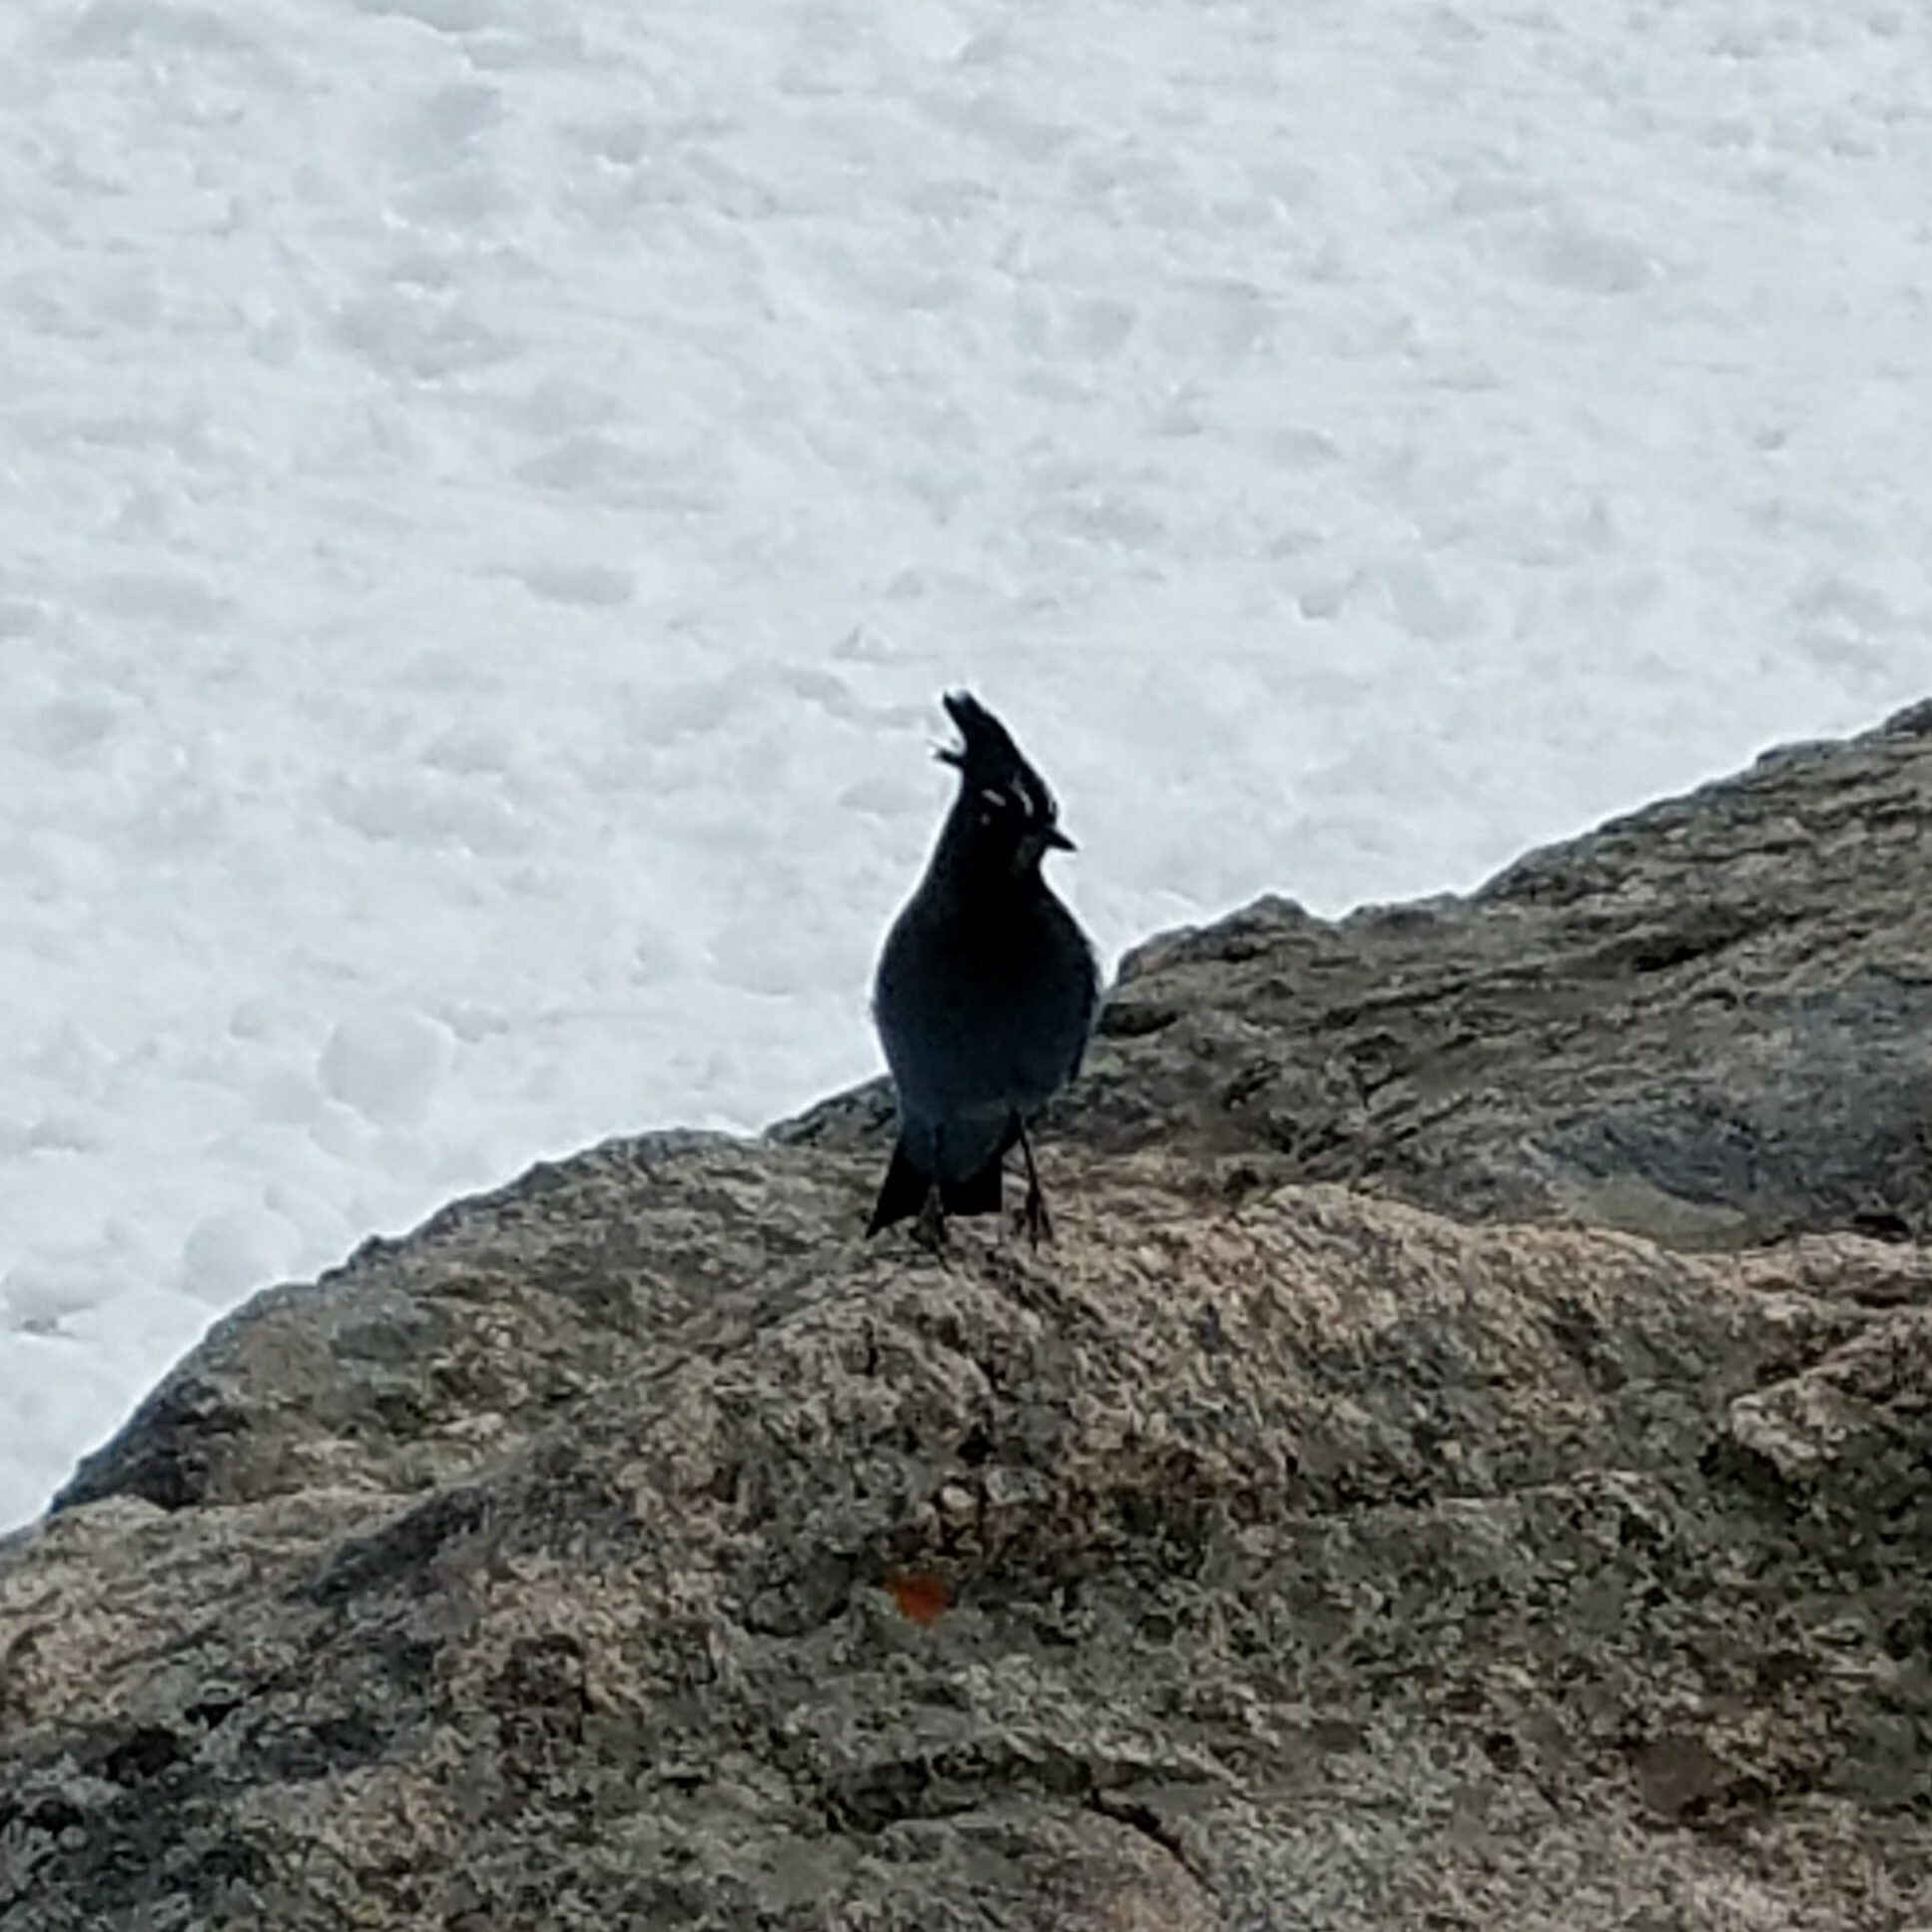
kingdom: Animalia
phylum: Chordata
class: Aves
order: Passeriformes
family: Corvidae
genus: Cyanocitta
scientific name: Cyanocitta stelleri
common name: Steller's jay
